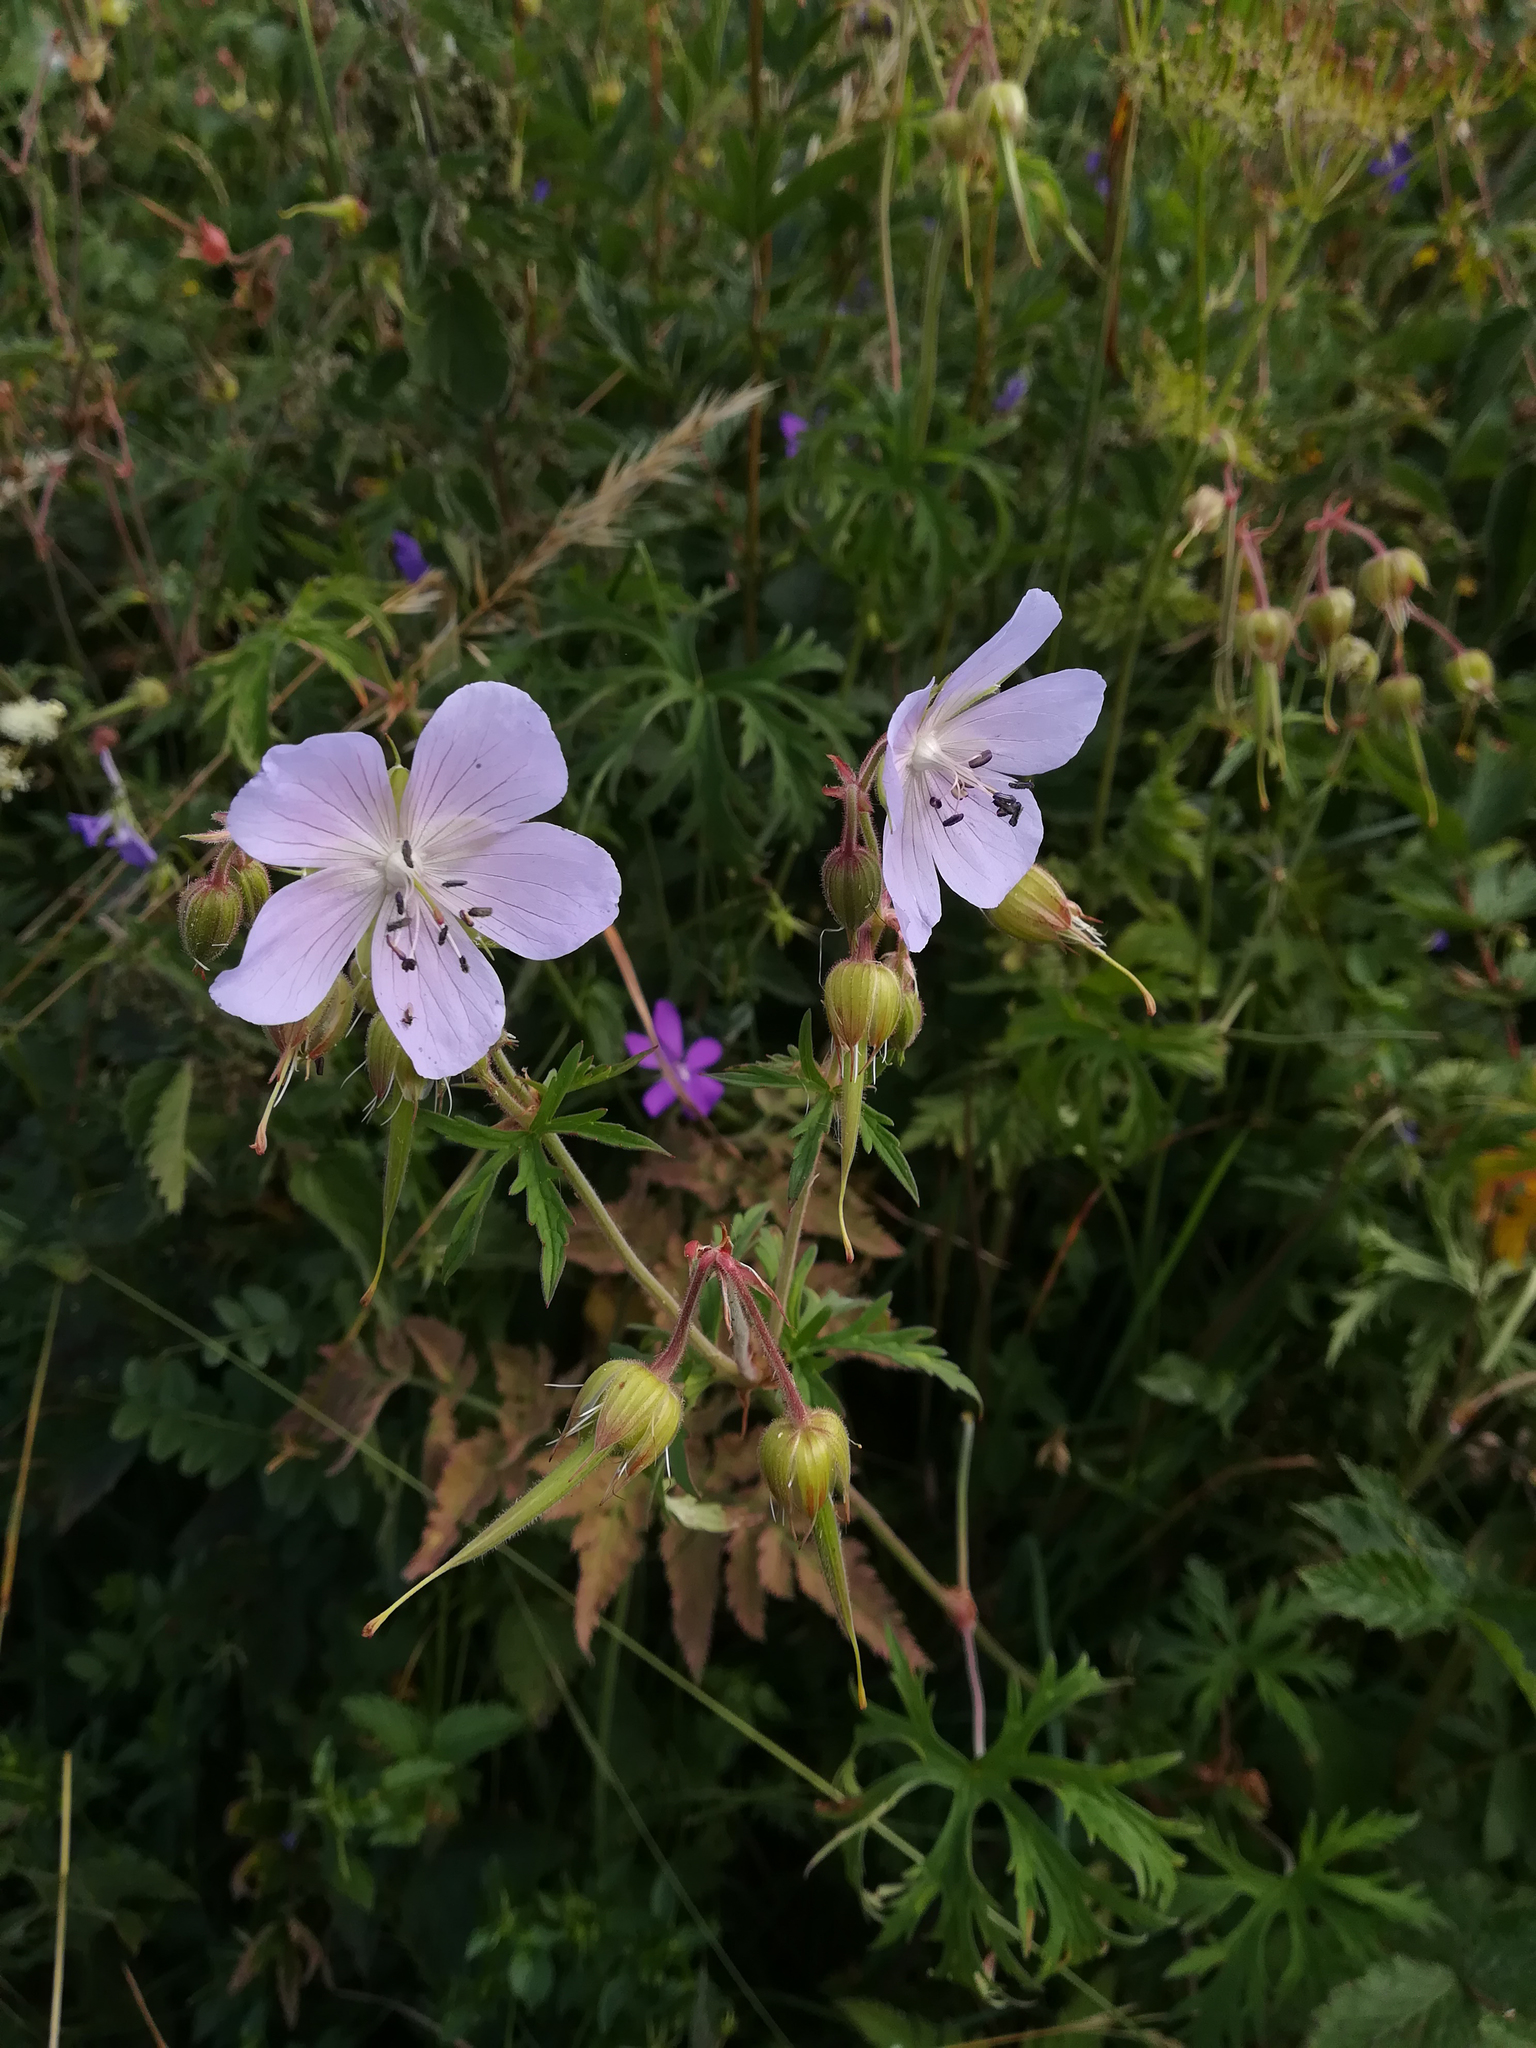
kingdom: Plantae
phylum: Tracheophyta
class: Magnoliopsida
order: Geraniales
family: Geraniaceae
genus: Geranium
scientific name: Geranium pratense
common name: Meadow crane's-bill
